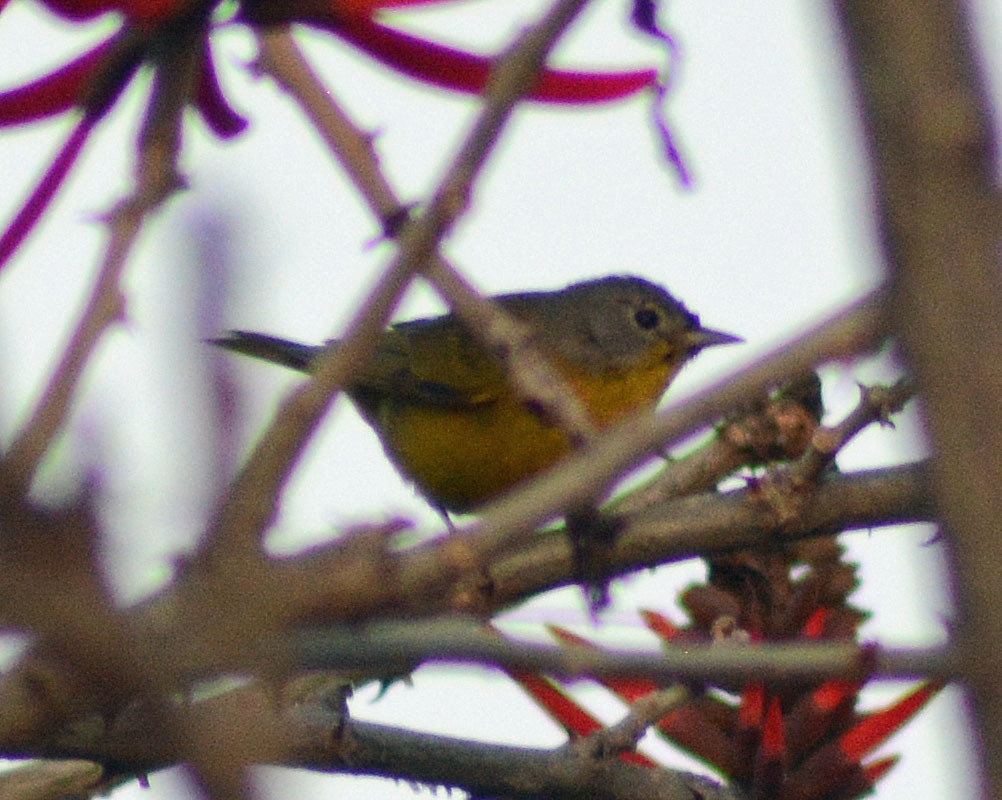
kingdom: Animalia
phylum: Chordata
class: Aves
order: Passeriformes
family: Parulidae
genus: Leiothlypis
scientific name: Leiothlypis ruficapilla
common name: Nashville warbler
